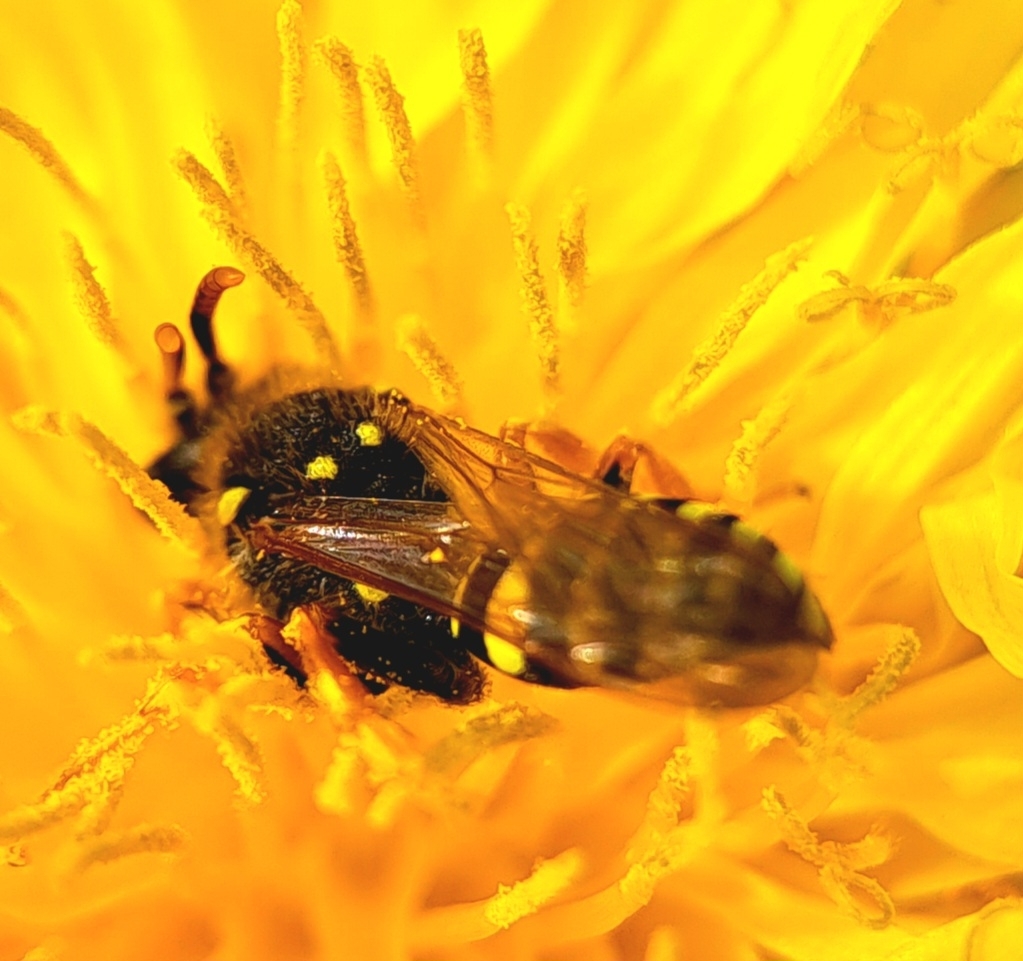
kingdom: Animalia
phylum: Arthropoda
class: Insecta
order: Hymenoptera
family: Apidae
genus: Nomada
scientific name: Nomada goodeniana
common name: Gooden's nomad bee
